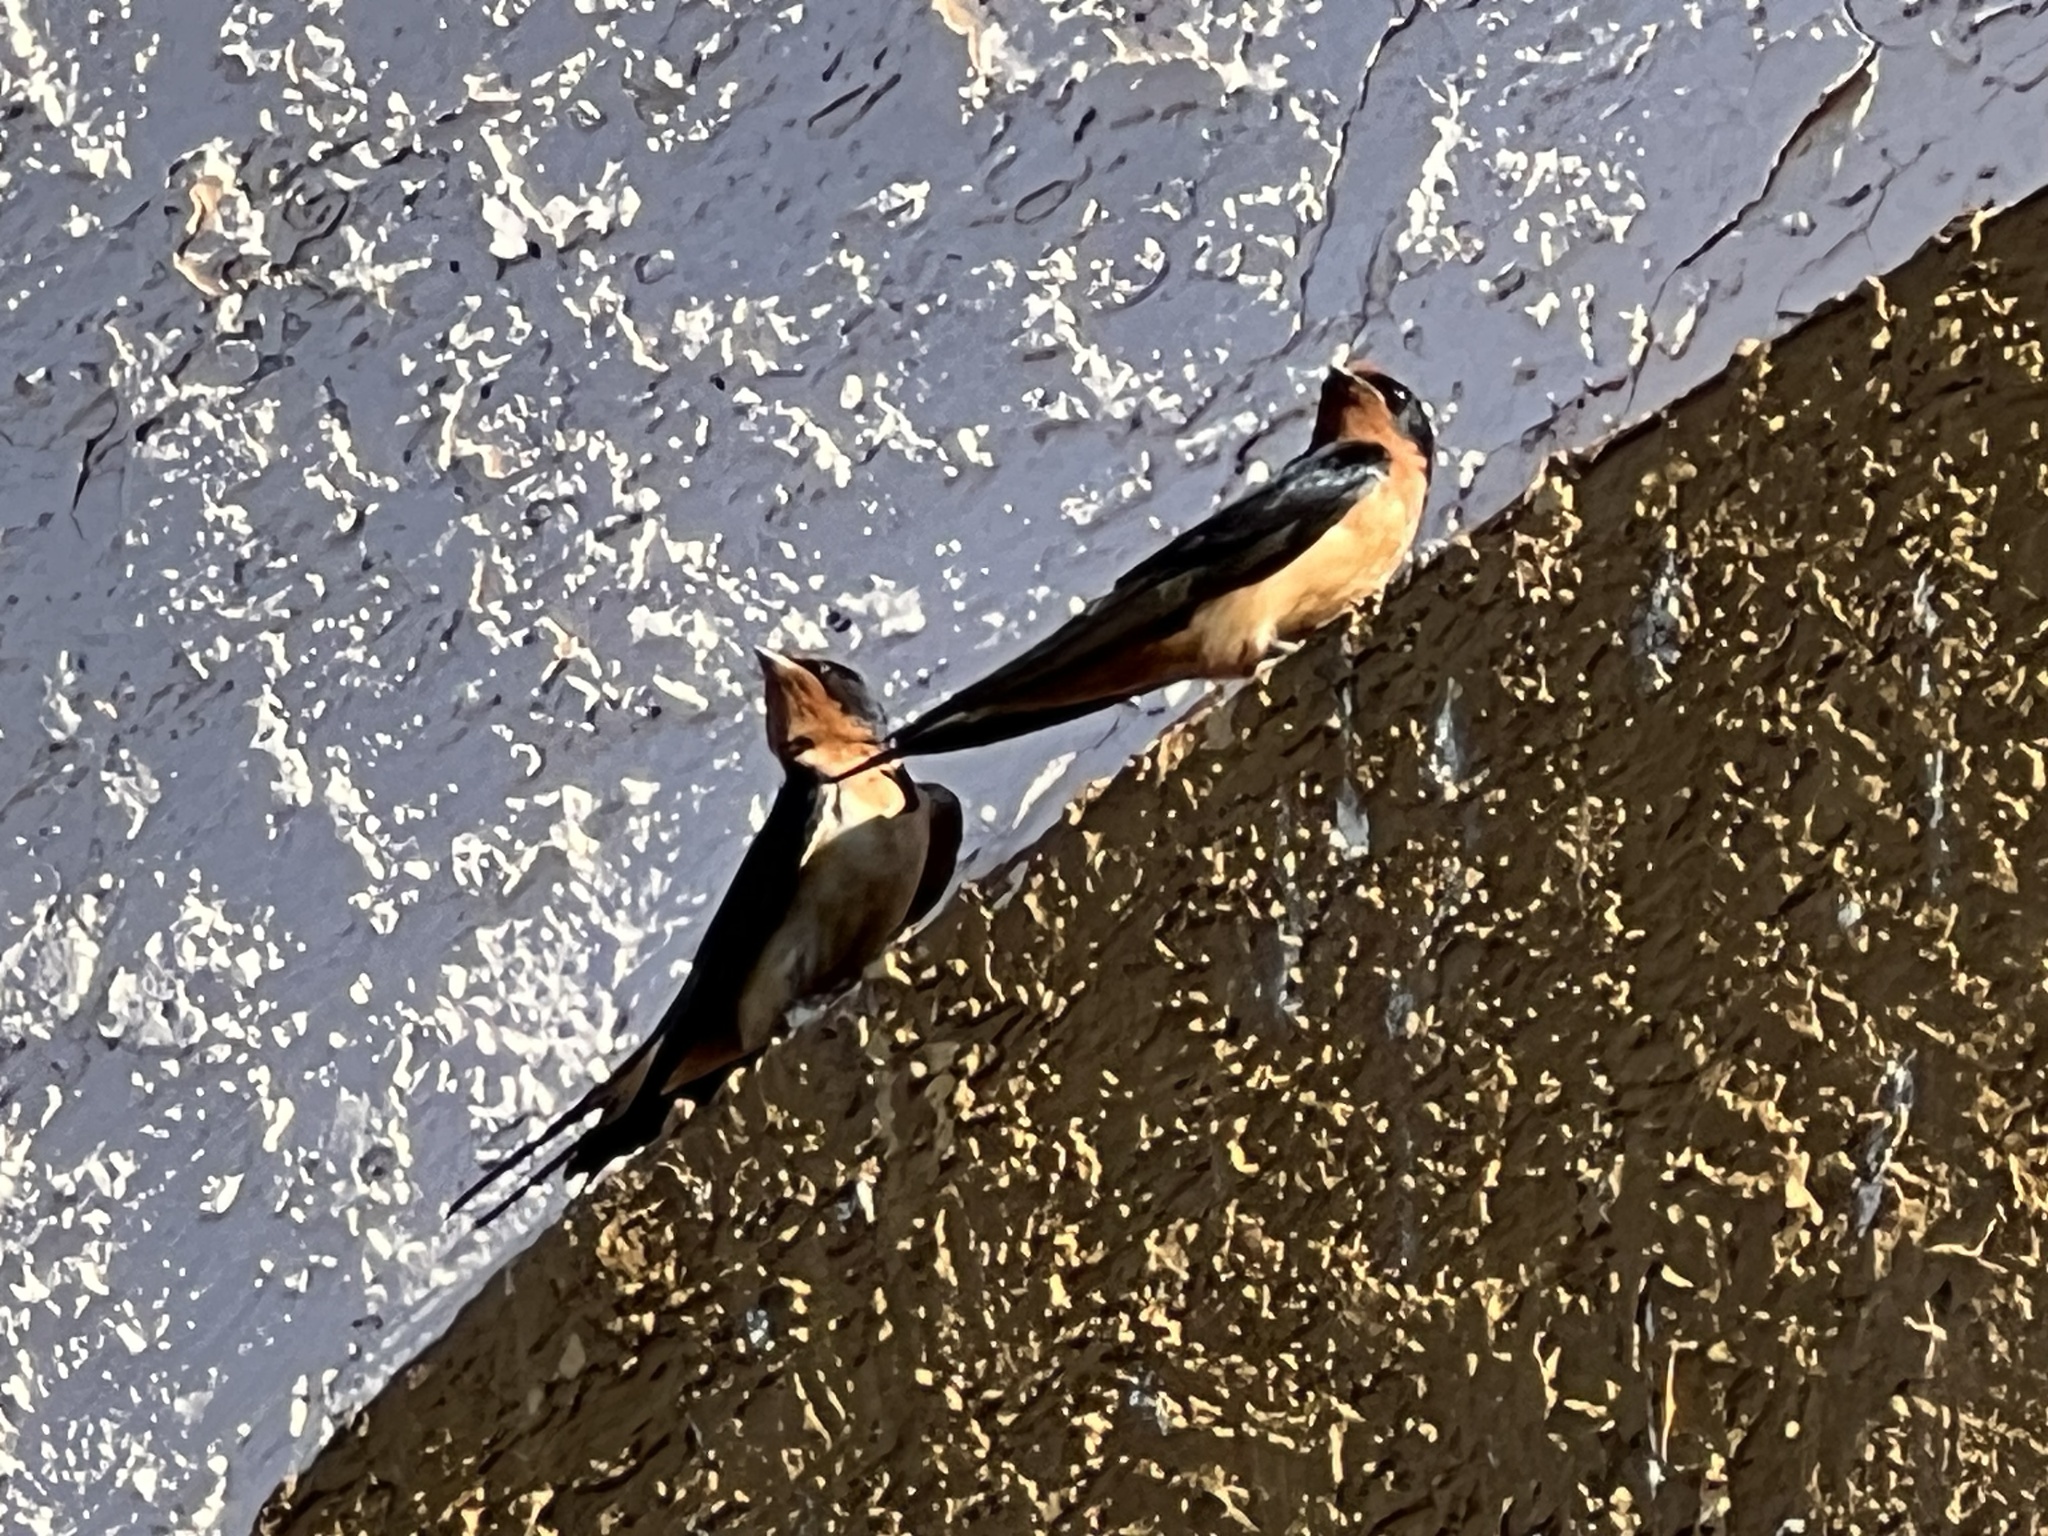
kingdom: Animalia
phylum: Chordata
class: Aves
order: Passeriformes
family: Hirundinidae
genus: Hirundo
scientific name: Hirundo rustica
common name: Barn swallow
